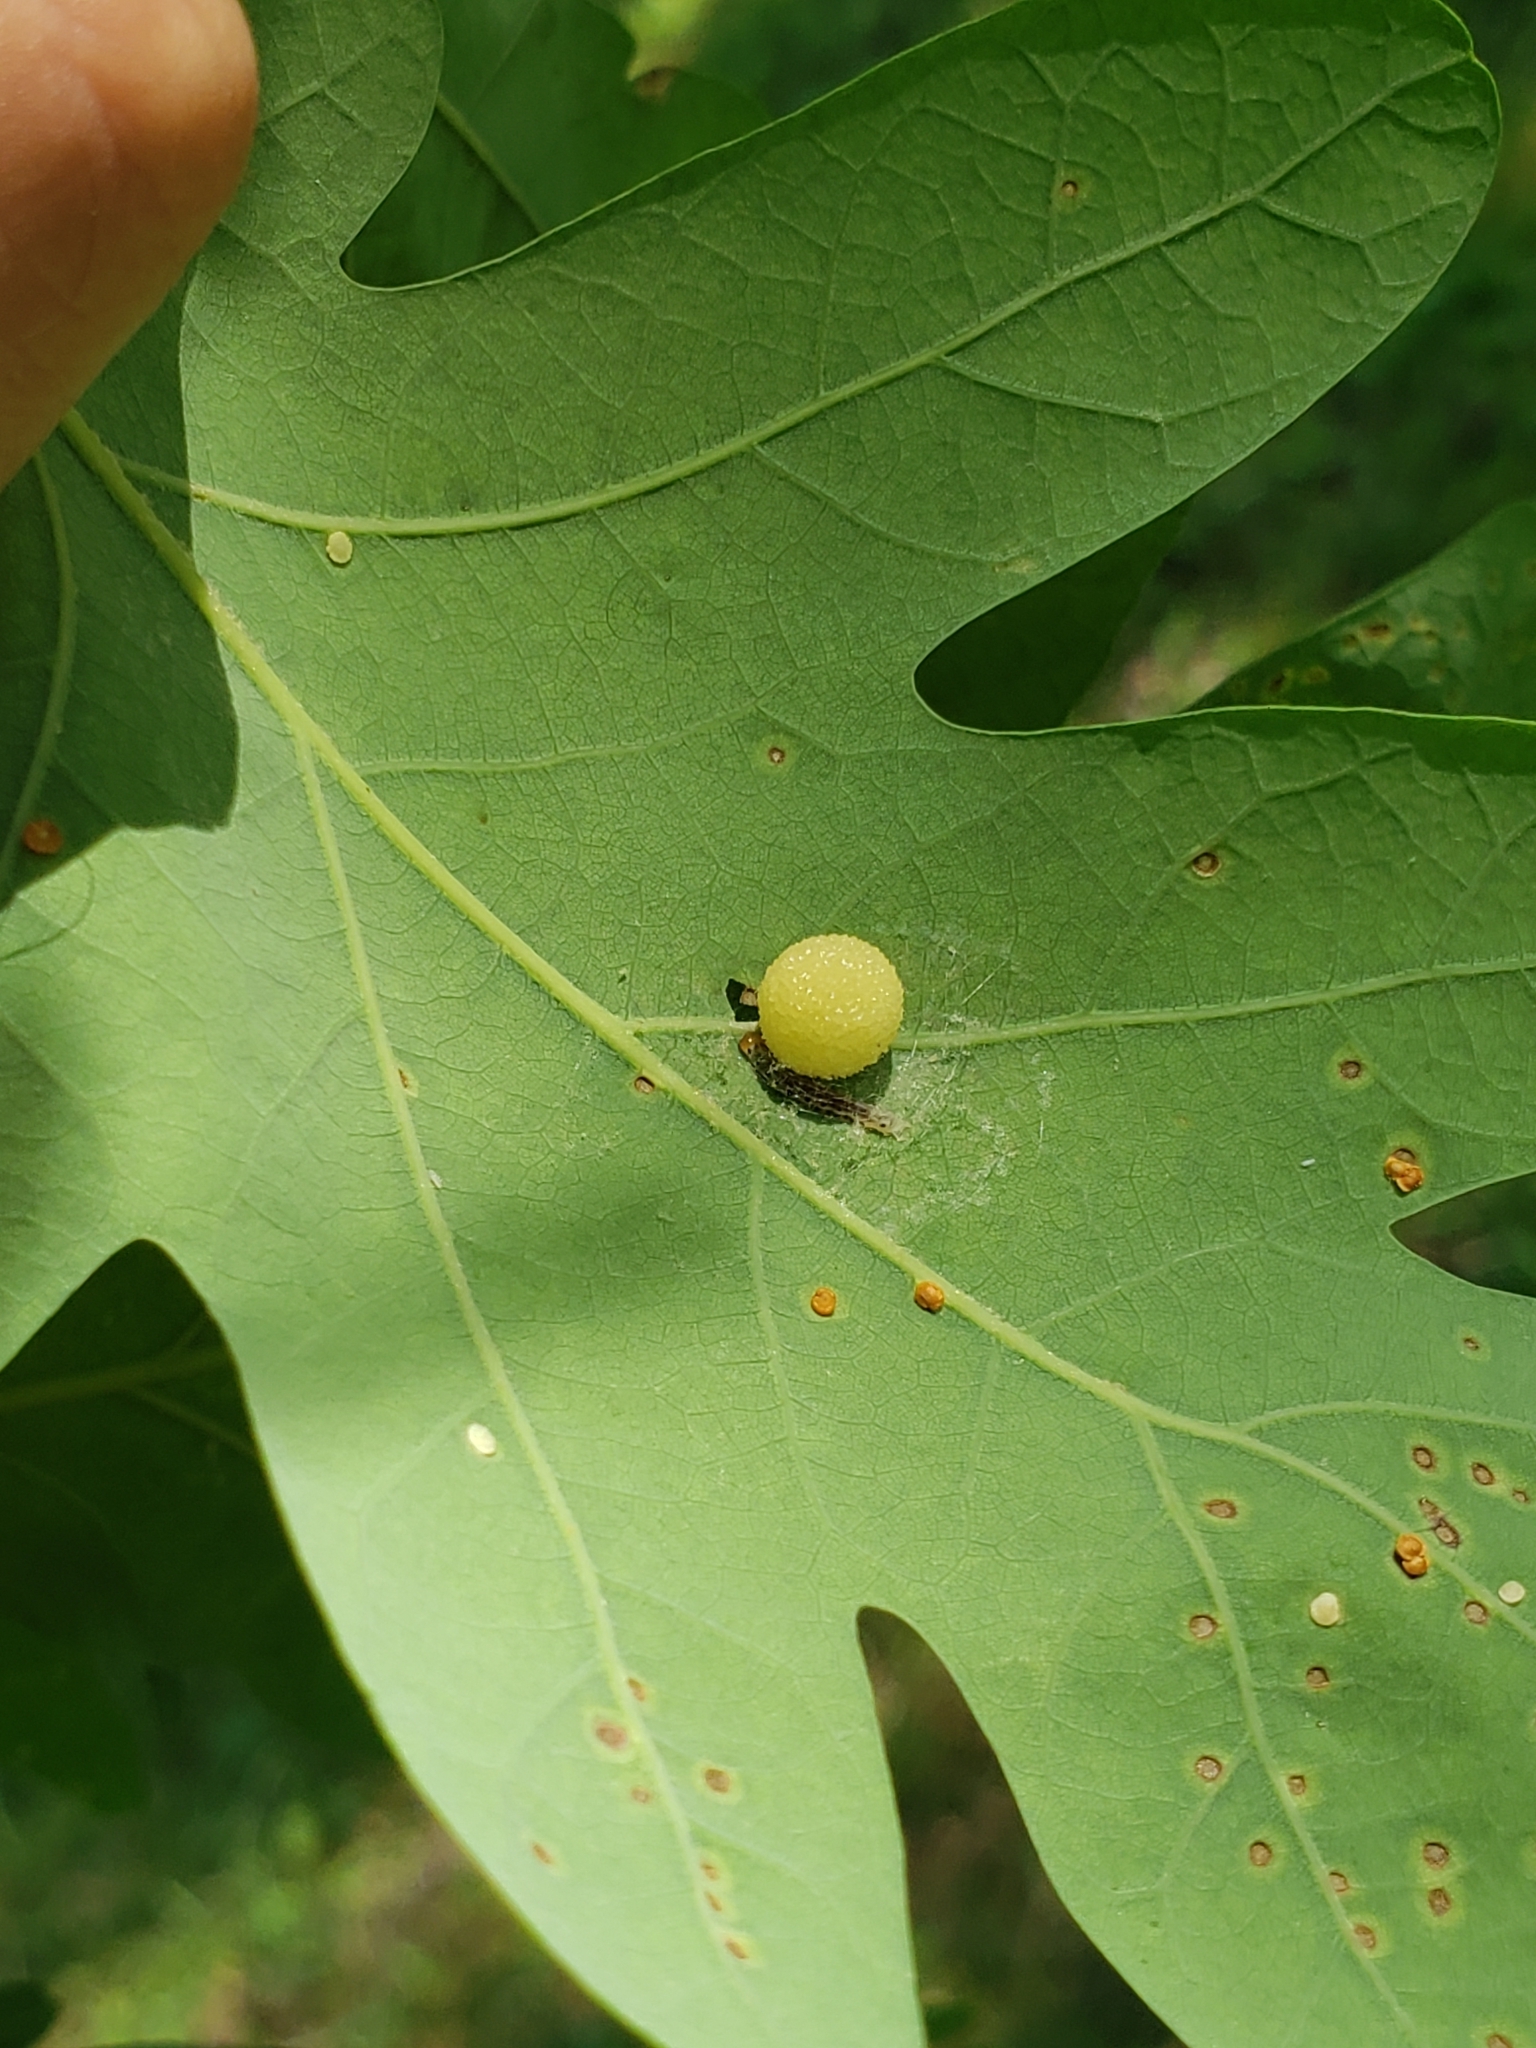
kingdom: Animalia
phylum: Arthropoda
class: Insecta
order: Hymenoptera
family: Cynipidae
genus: Acraspis
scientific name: Acraspis
